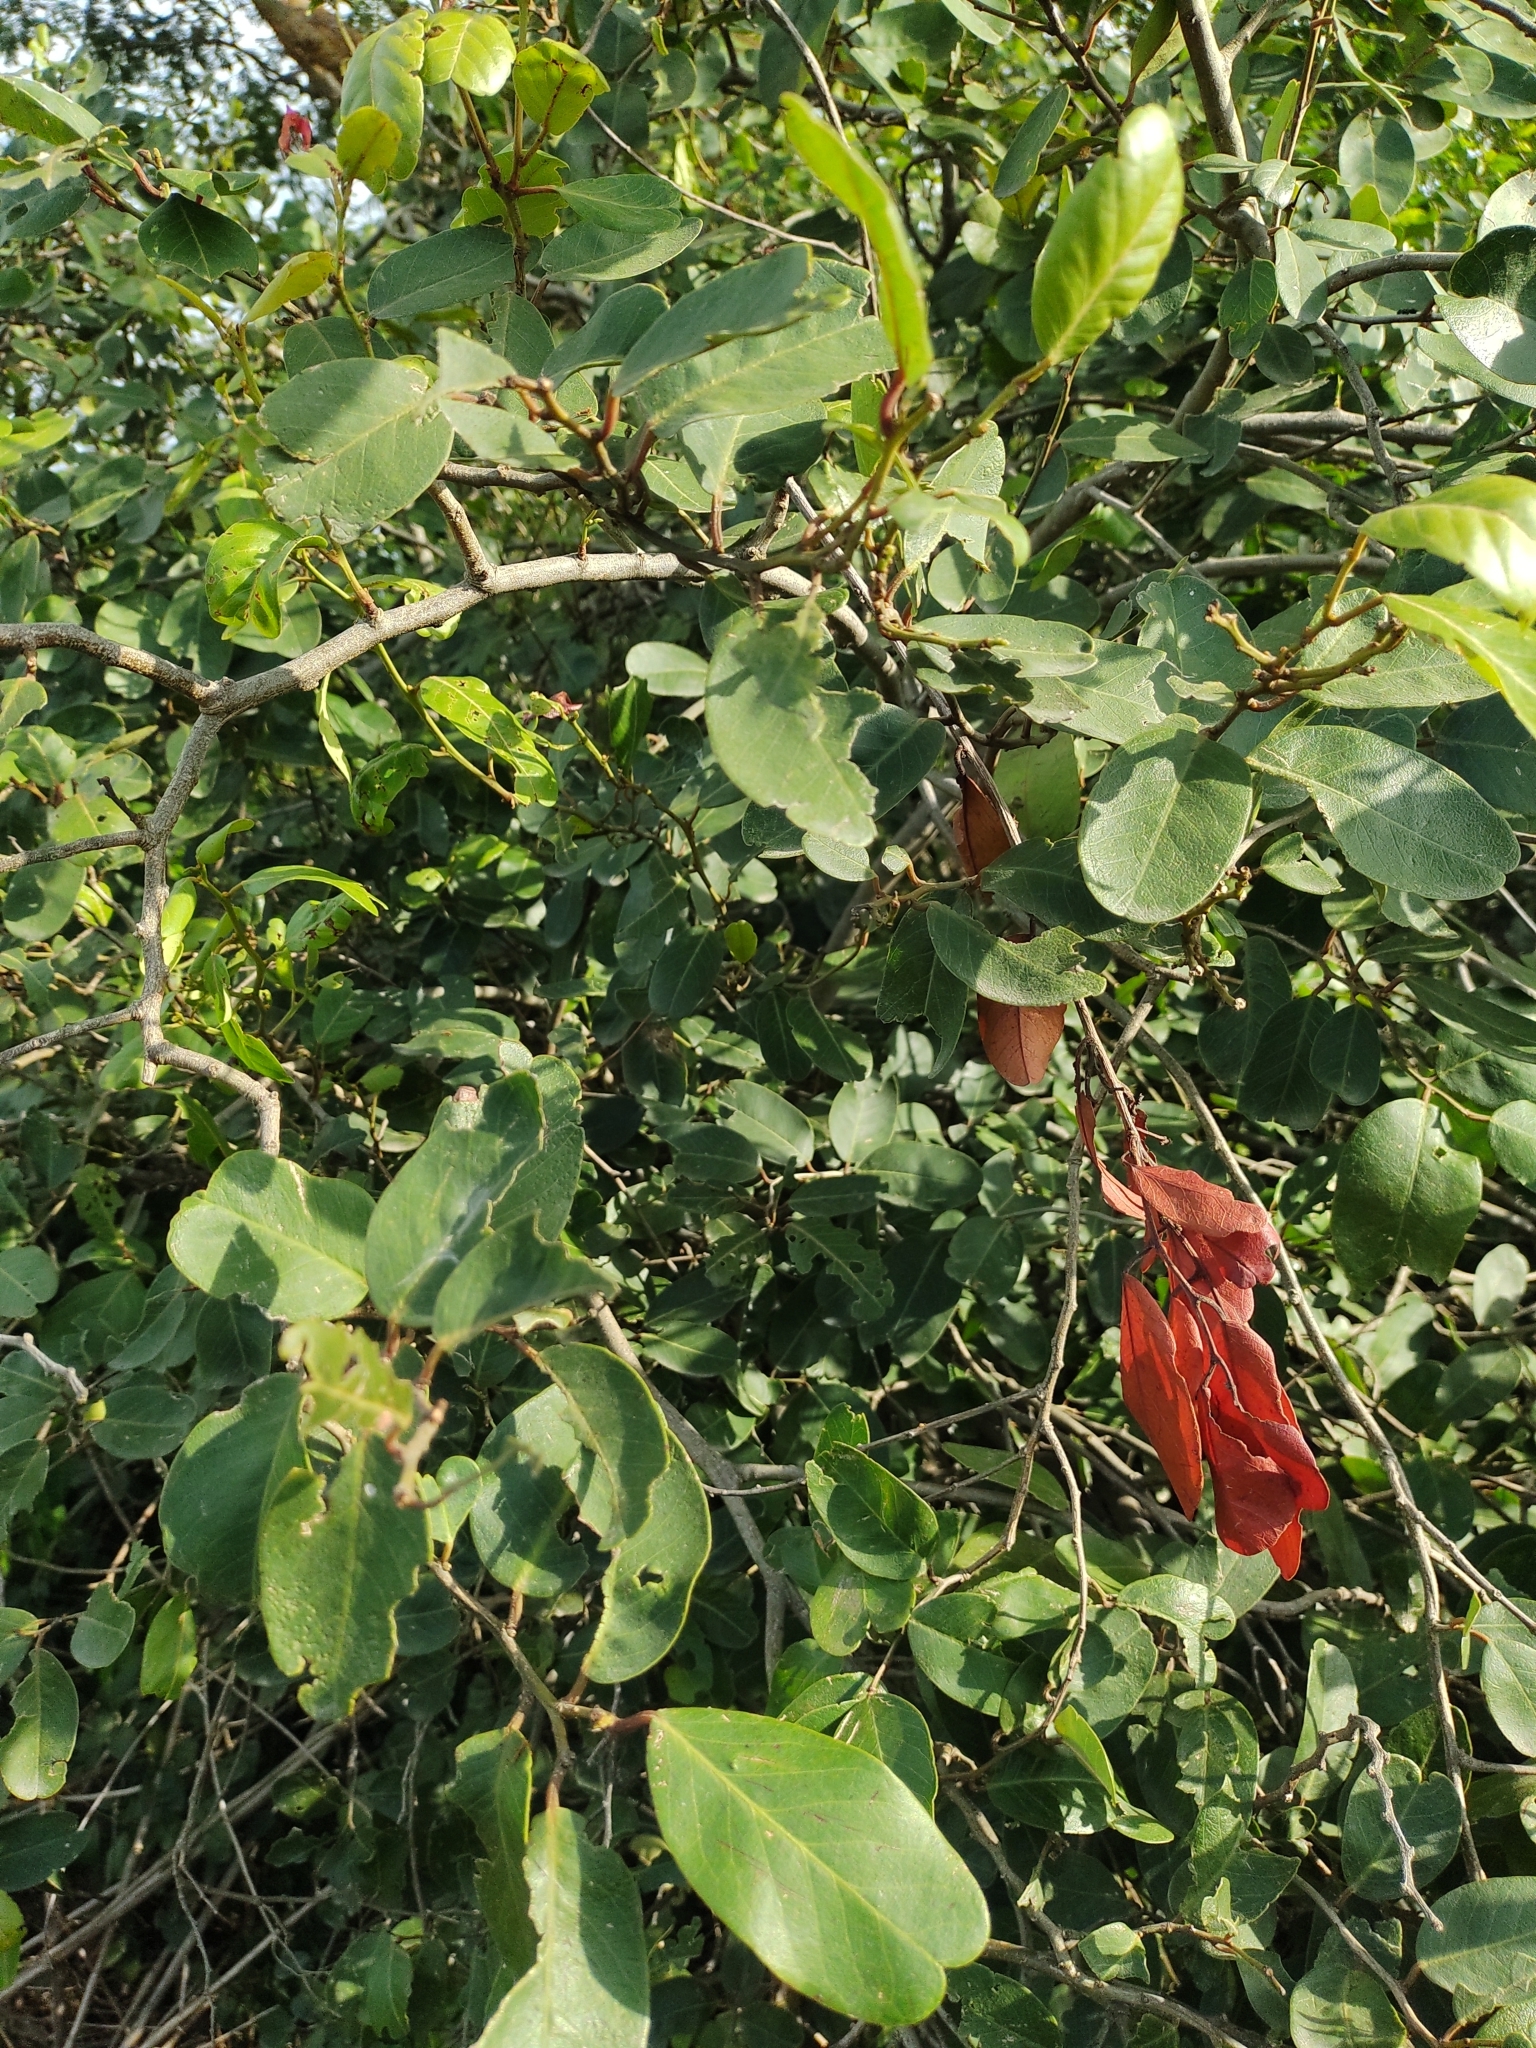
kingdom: Plantae
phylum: Tracheophyta
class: Magnoliopsida
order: Brassicales
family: Capparaceae
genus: Cynophalla
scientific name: Cynophalla flexuosa
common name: Capertree
